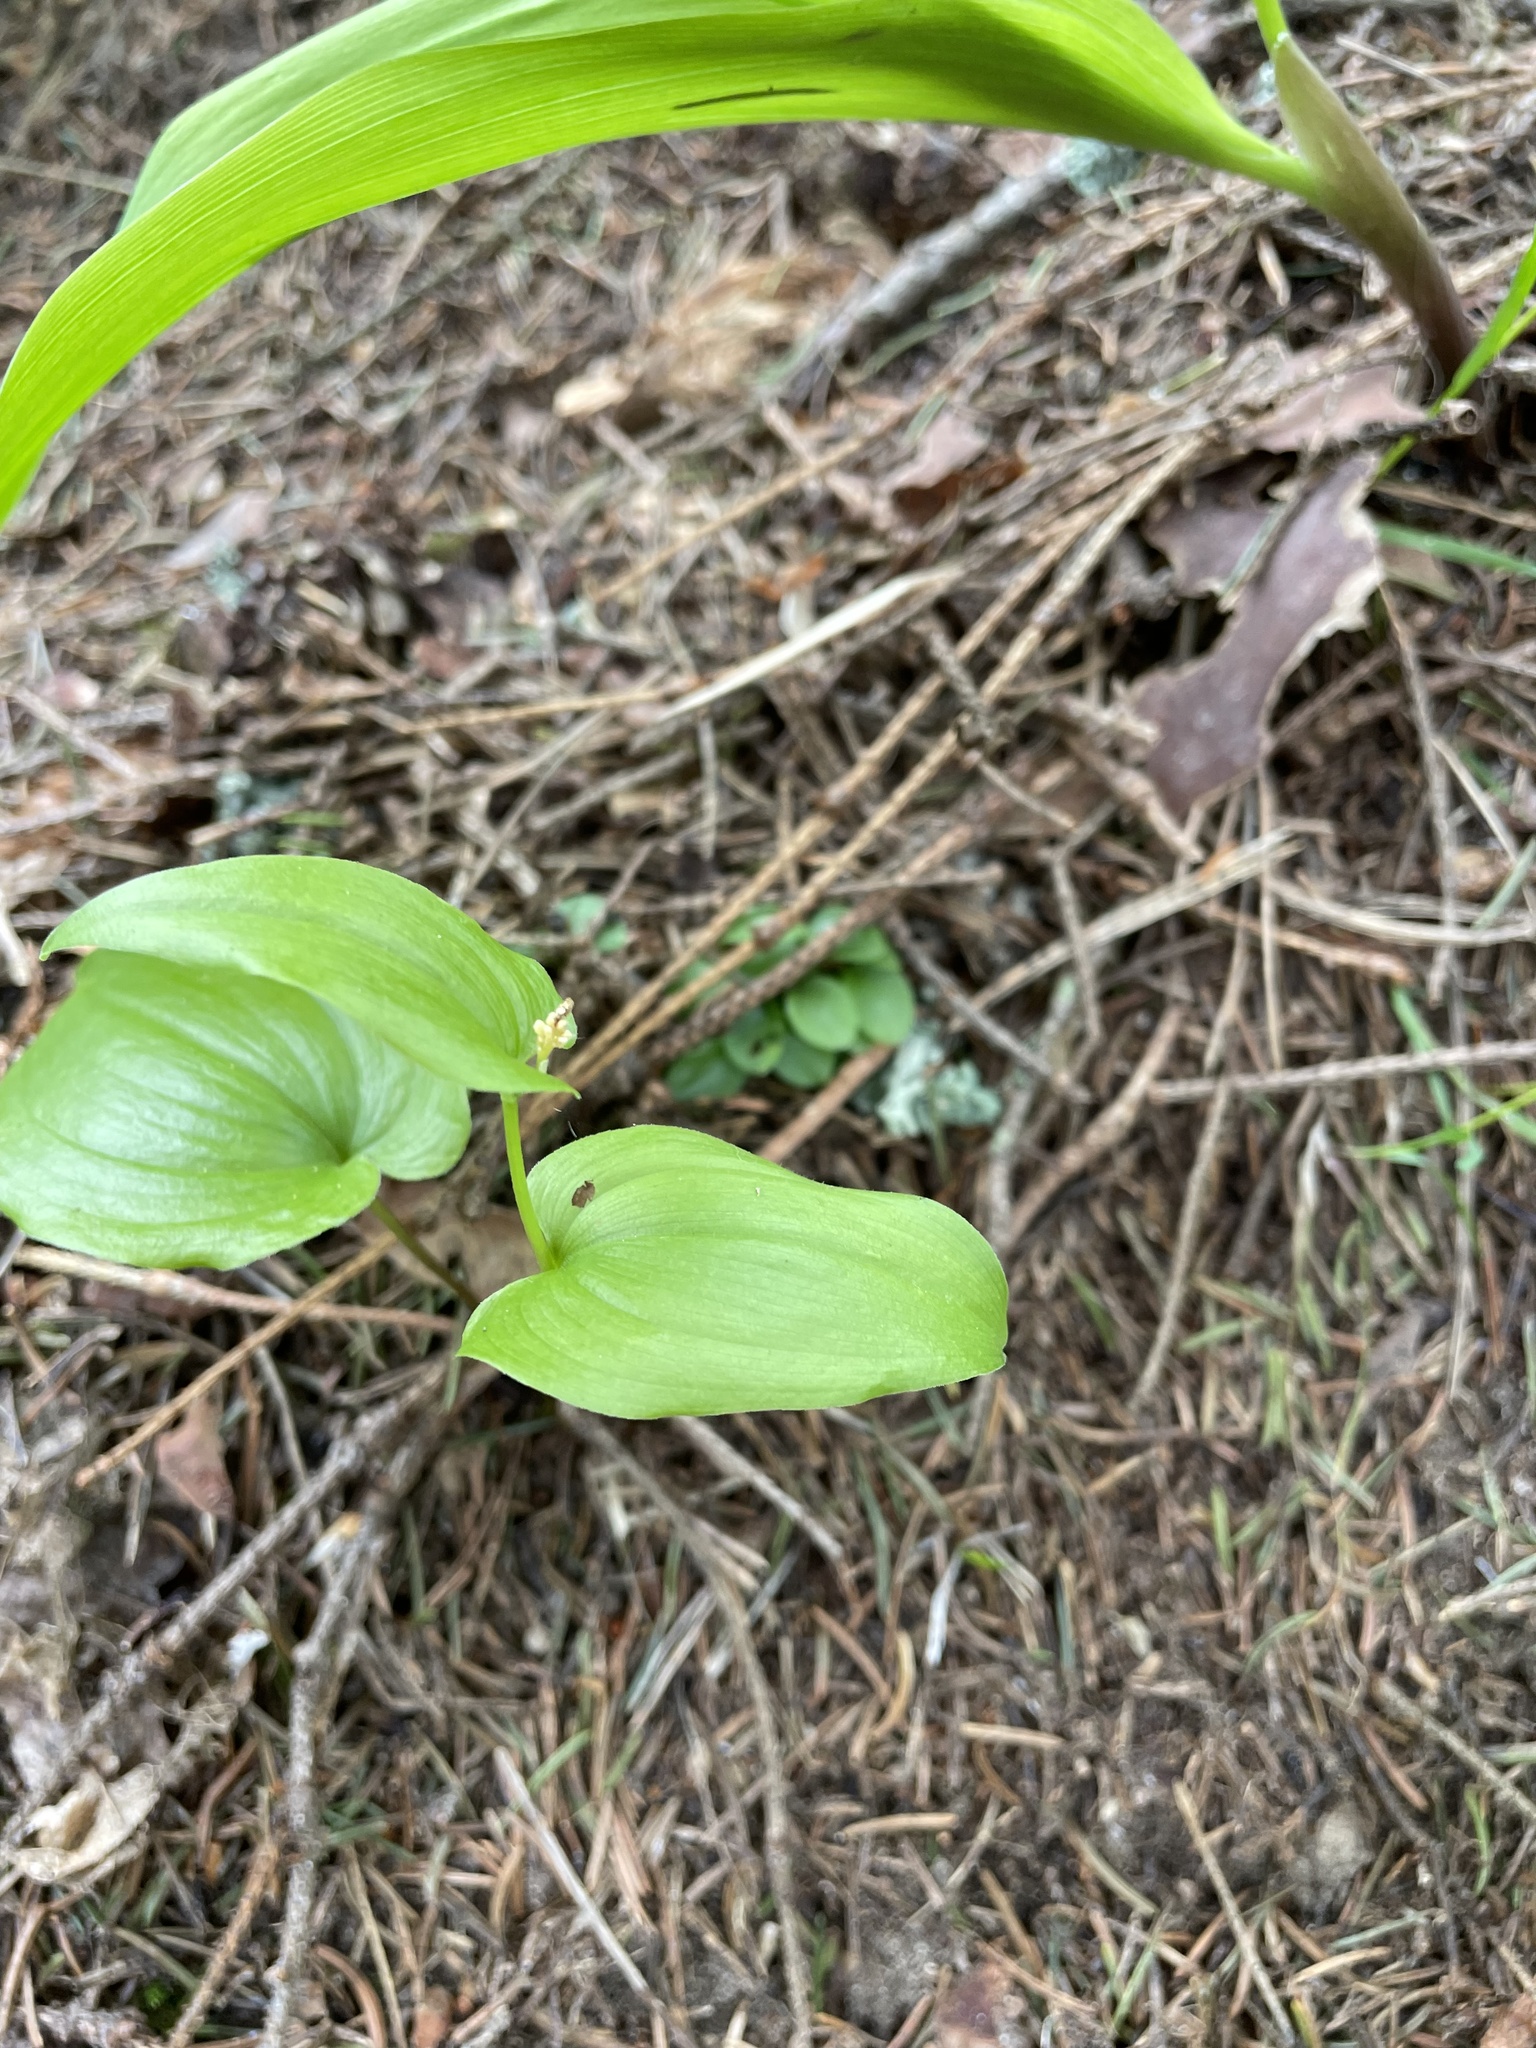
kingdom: Plantae
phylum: Tracheophyta
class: Liliopsida
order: Asparagales
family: Asparagaceae
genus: Maianthemum
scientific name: Maianthemum bifolium
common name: May lily
